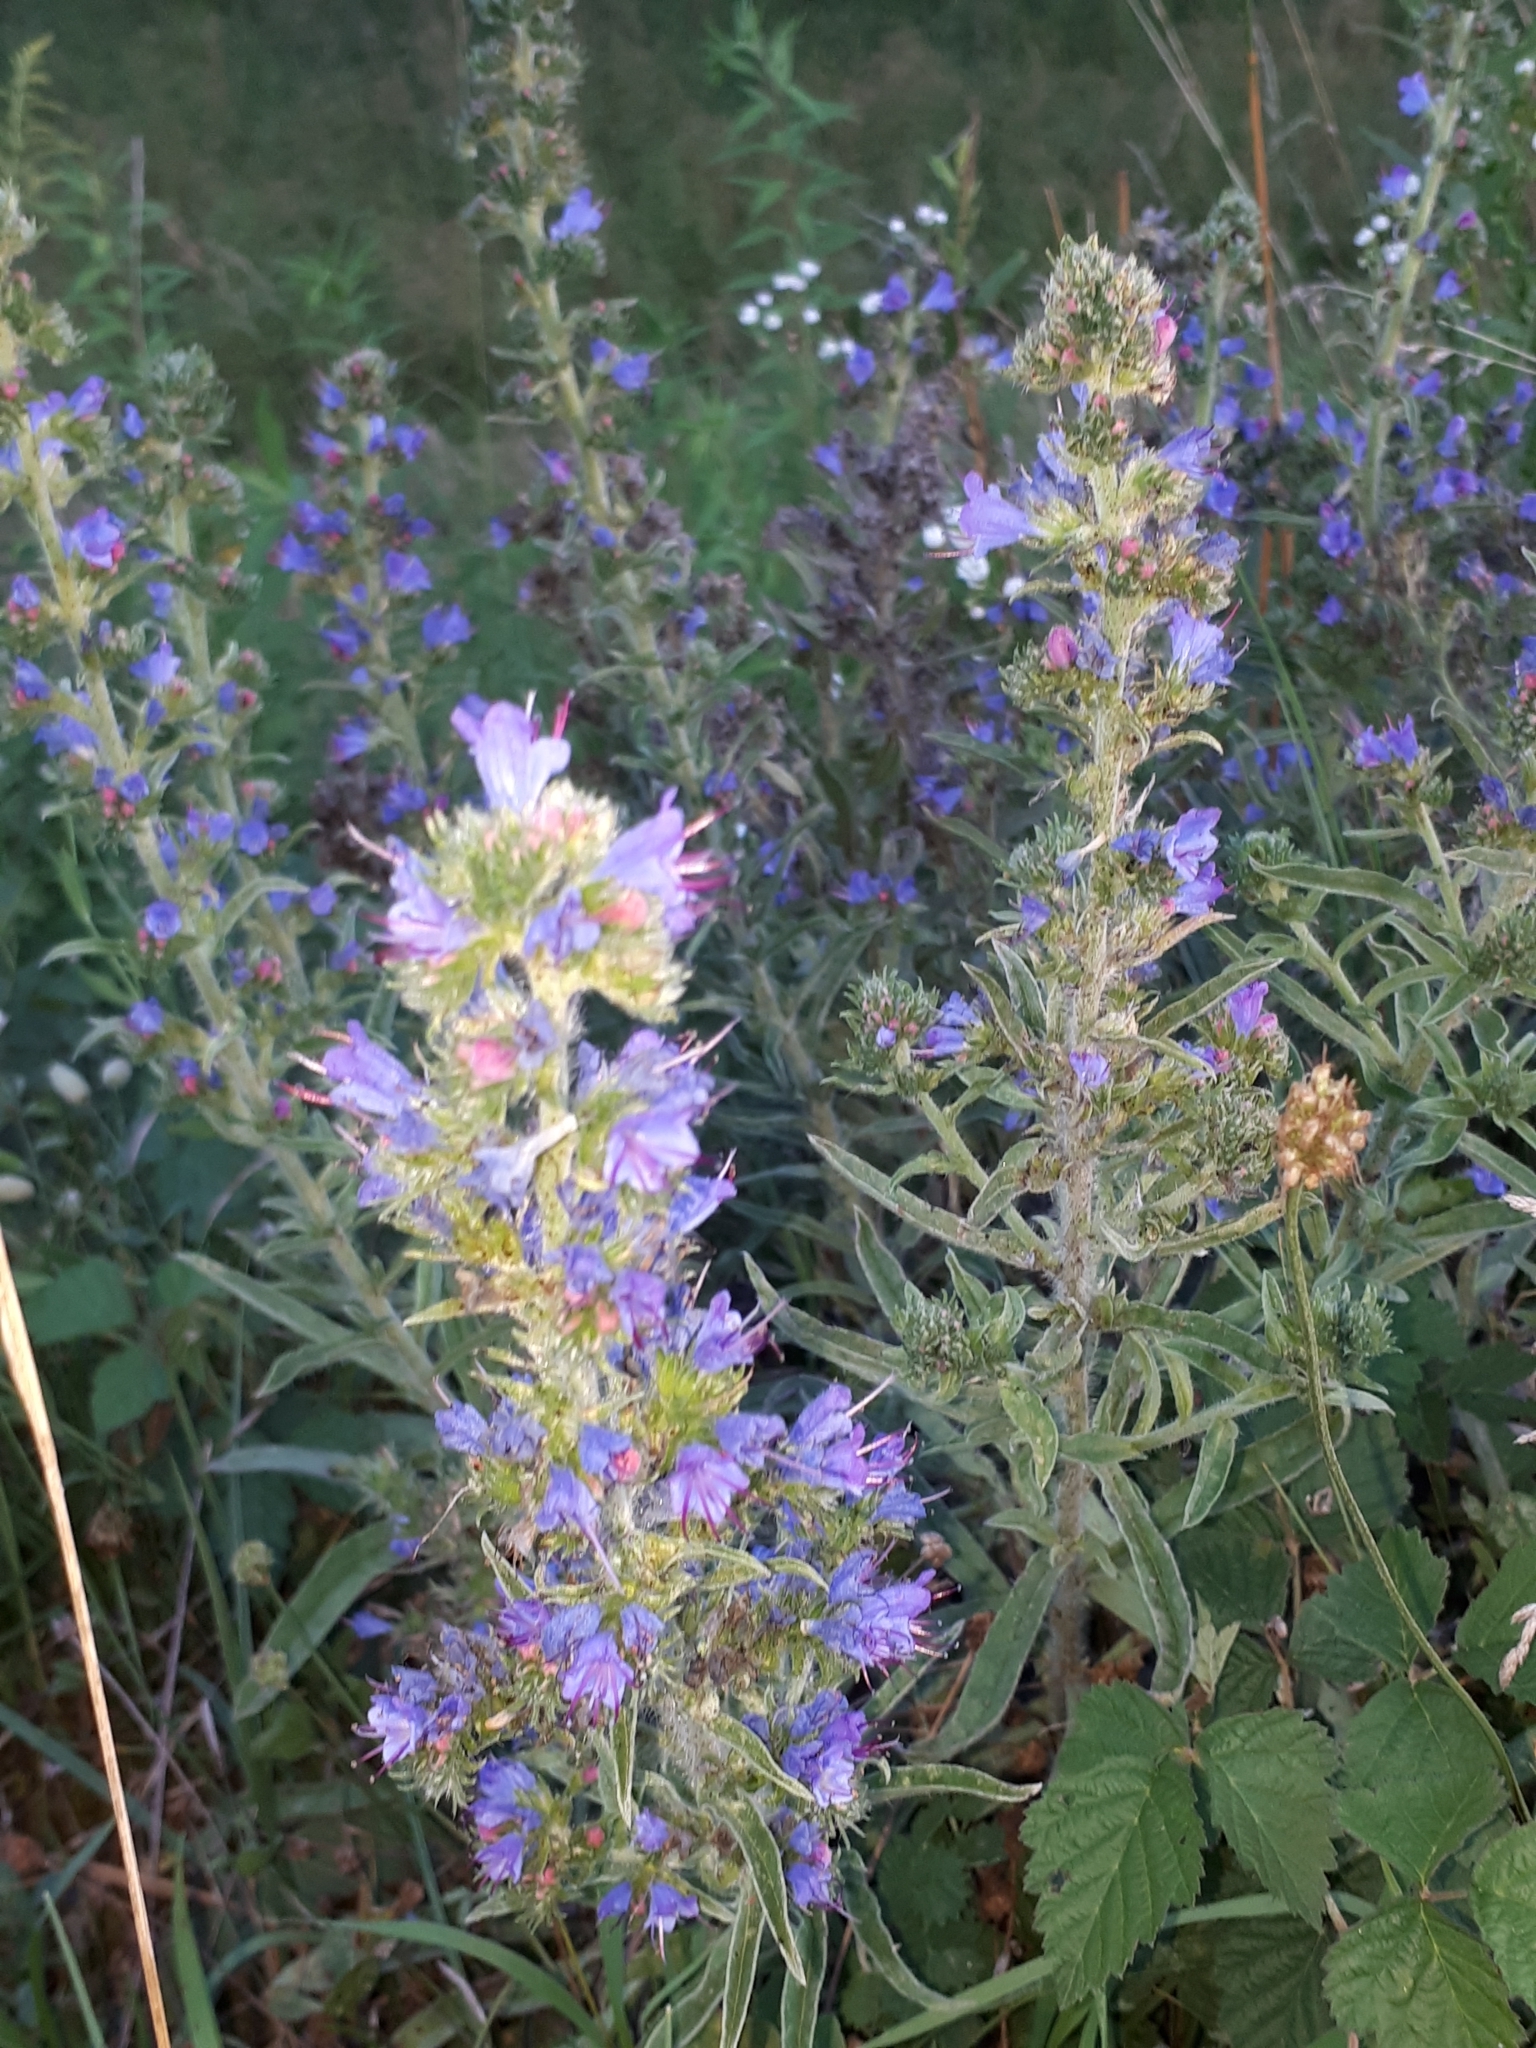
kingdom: Plantae
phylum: Tracheophyta
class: Magnoliopsida
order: Boraginales
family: Boraginaceae
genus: Echium
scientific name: Echium vulgare
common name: Common viper's bugloss
